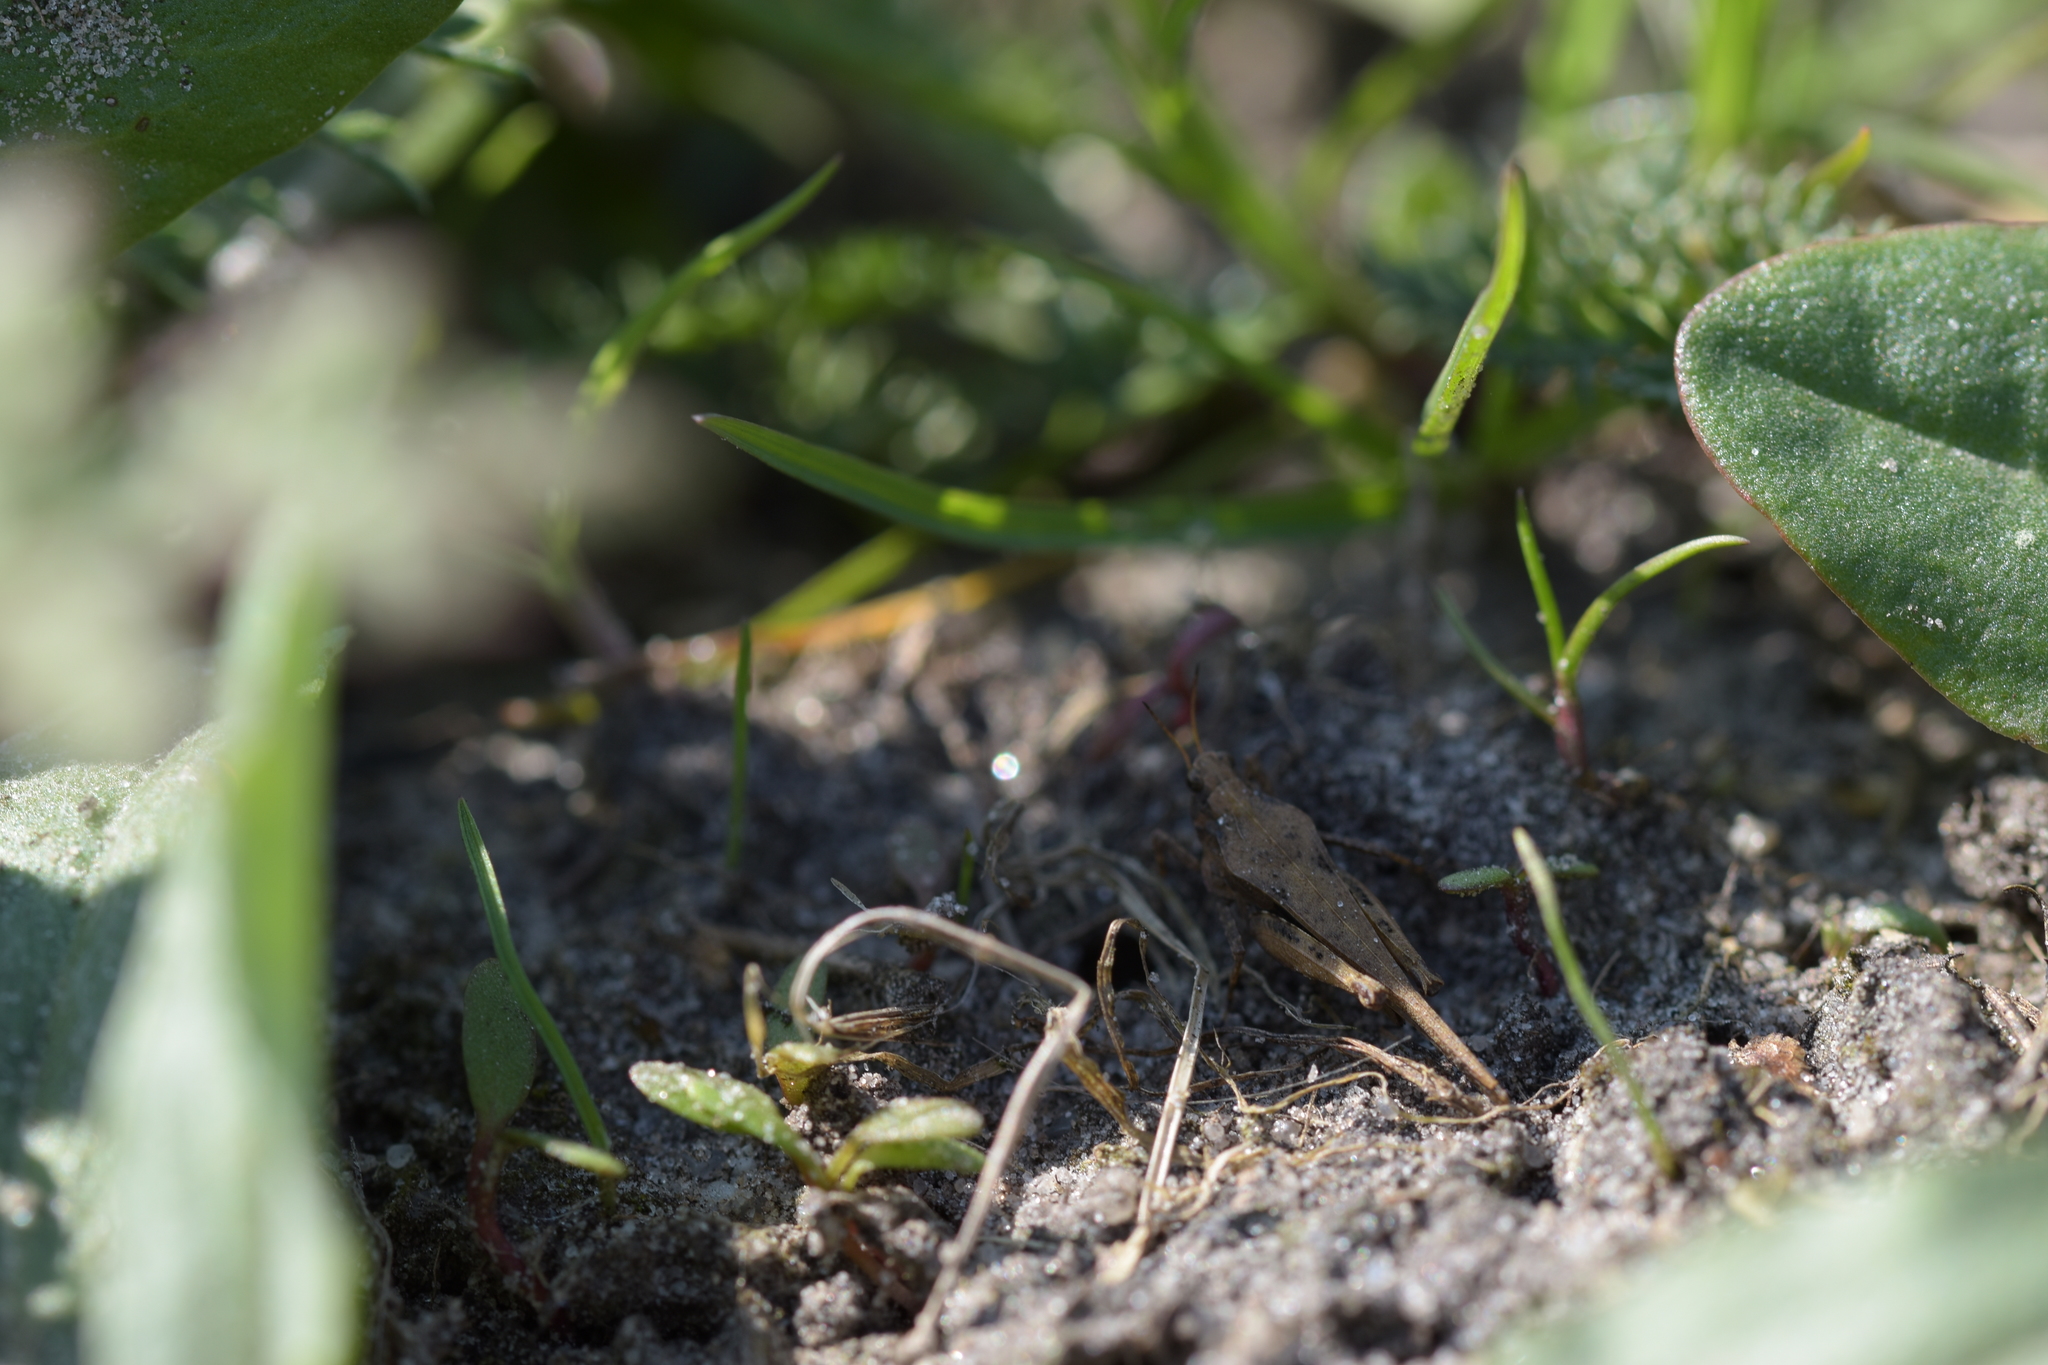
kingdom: Animalia
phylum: Arthropoda
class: Insecta
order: Orthoptera
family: Tetrigidae
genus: Tetrix
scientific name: Tetrix subulata
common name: Slender ground-hopper
